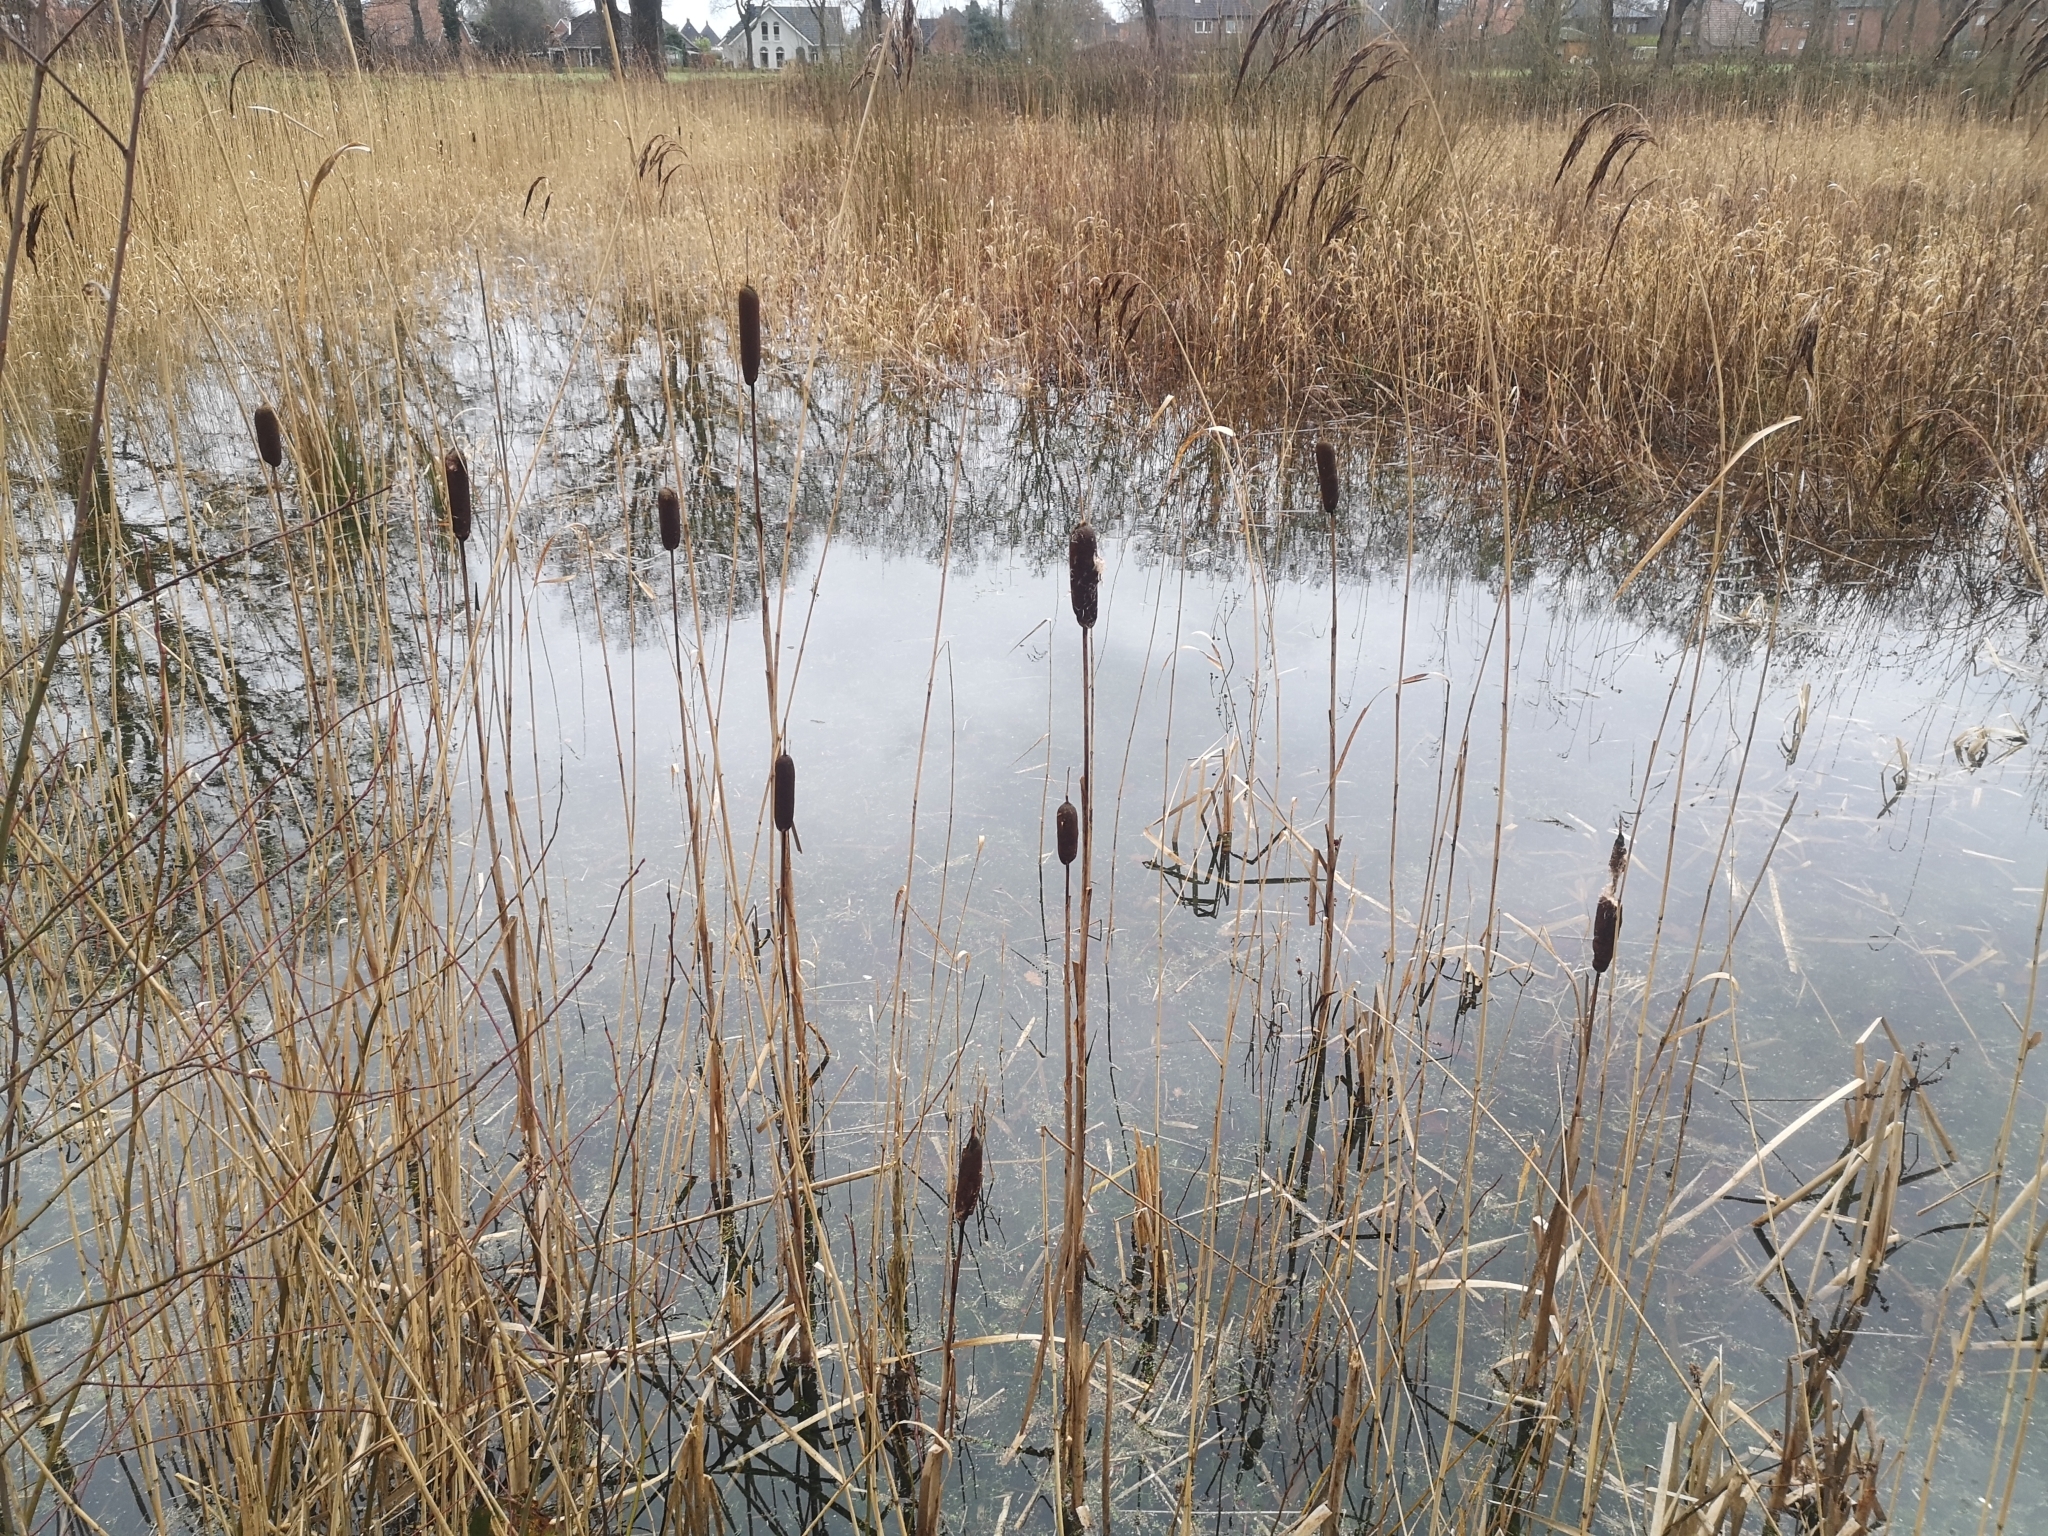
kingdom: Plantae
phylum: Tracheophyta
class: Liliopsida
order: Poales
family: Typhaceae
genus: Typha
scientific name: Typha latifolia
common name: Broadleaf cattail
